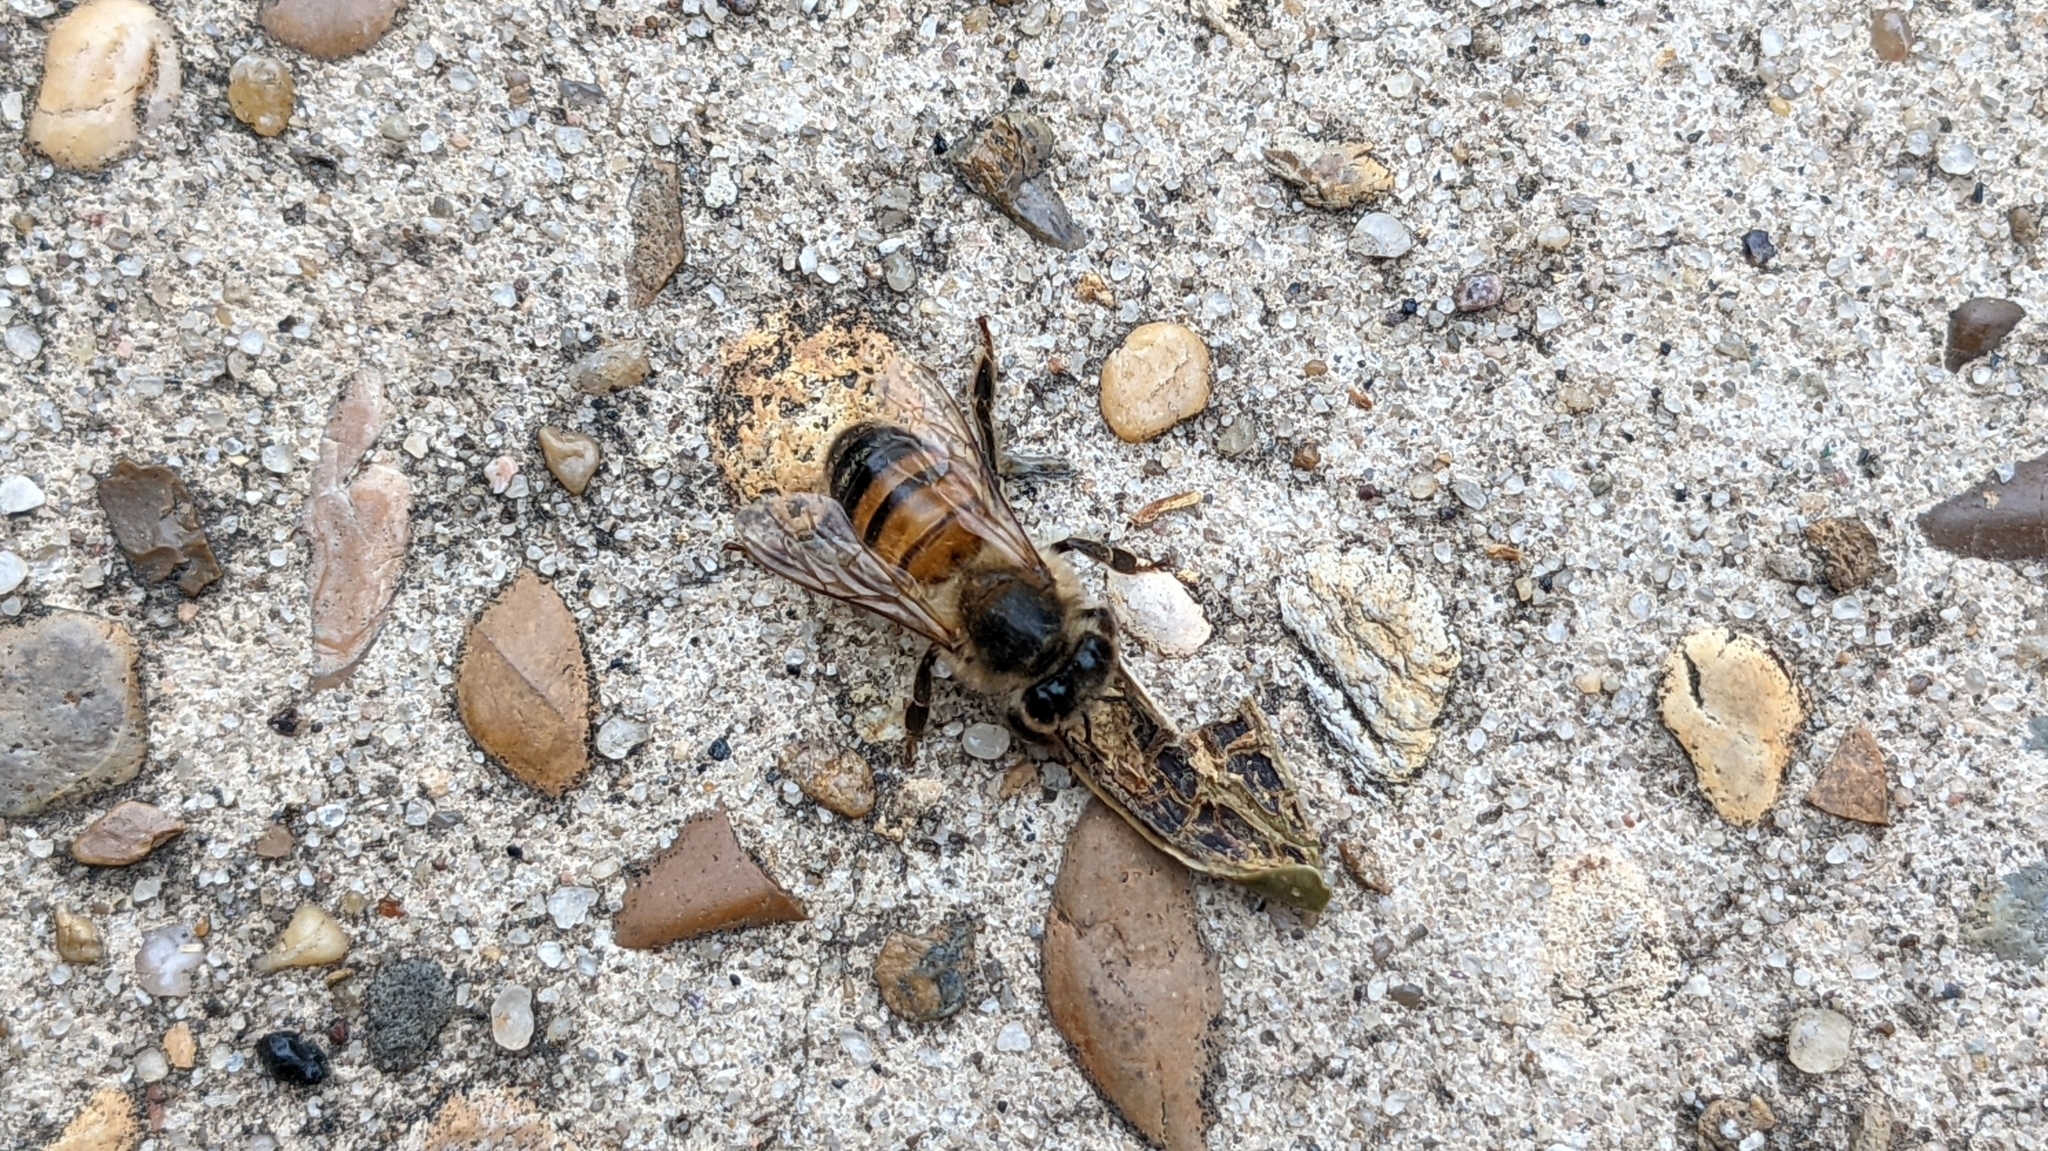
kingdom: Animalia
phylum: Arthropoda
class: Insecta
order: Hymenoptera
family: Apidae
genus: Apis
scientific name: Apis mellifera
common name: Honey bee
